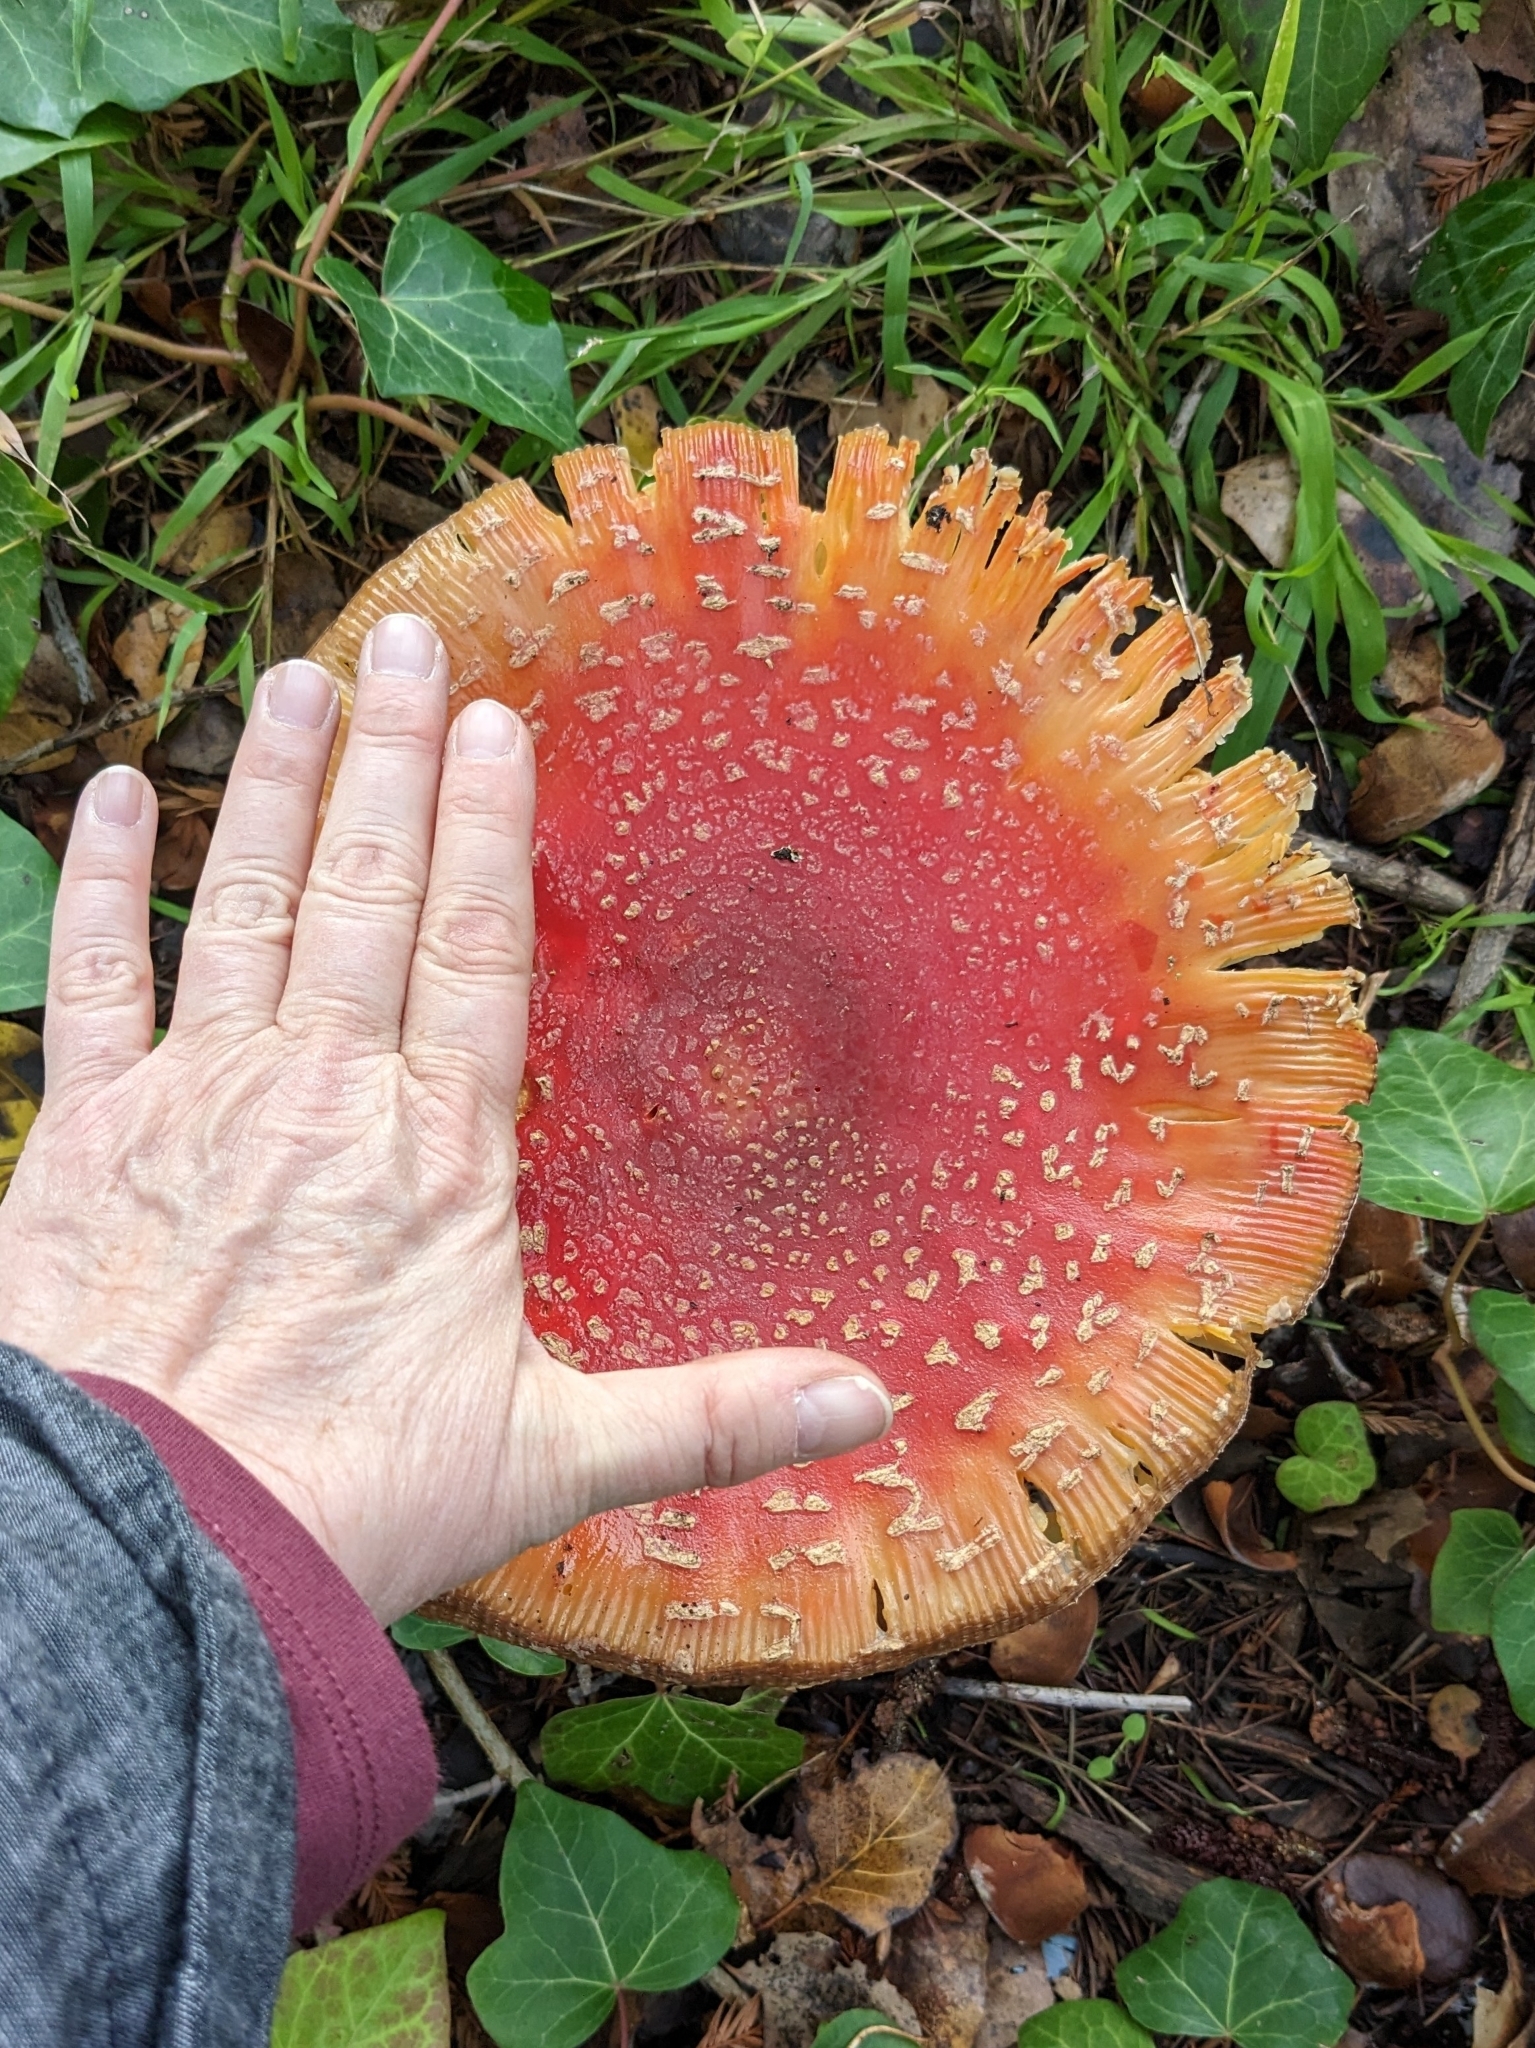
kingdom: Fungi
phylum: Basidiomycota
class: Agaricomycetes
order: Agaricales
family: Amanitaceae
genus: Amanita
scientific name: Amanita muscaria
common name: Fly agaric
